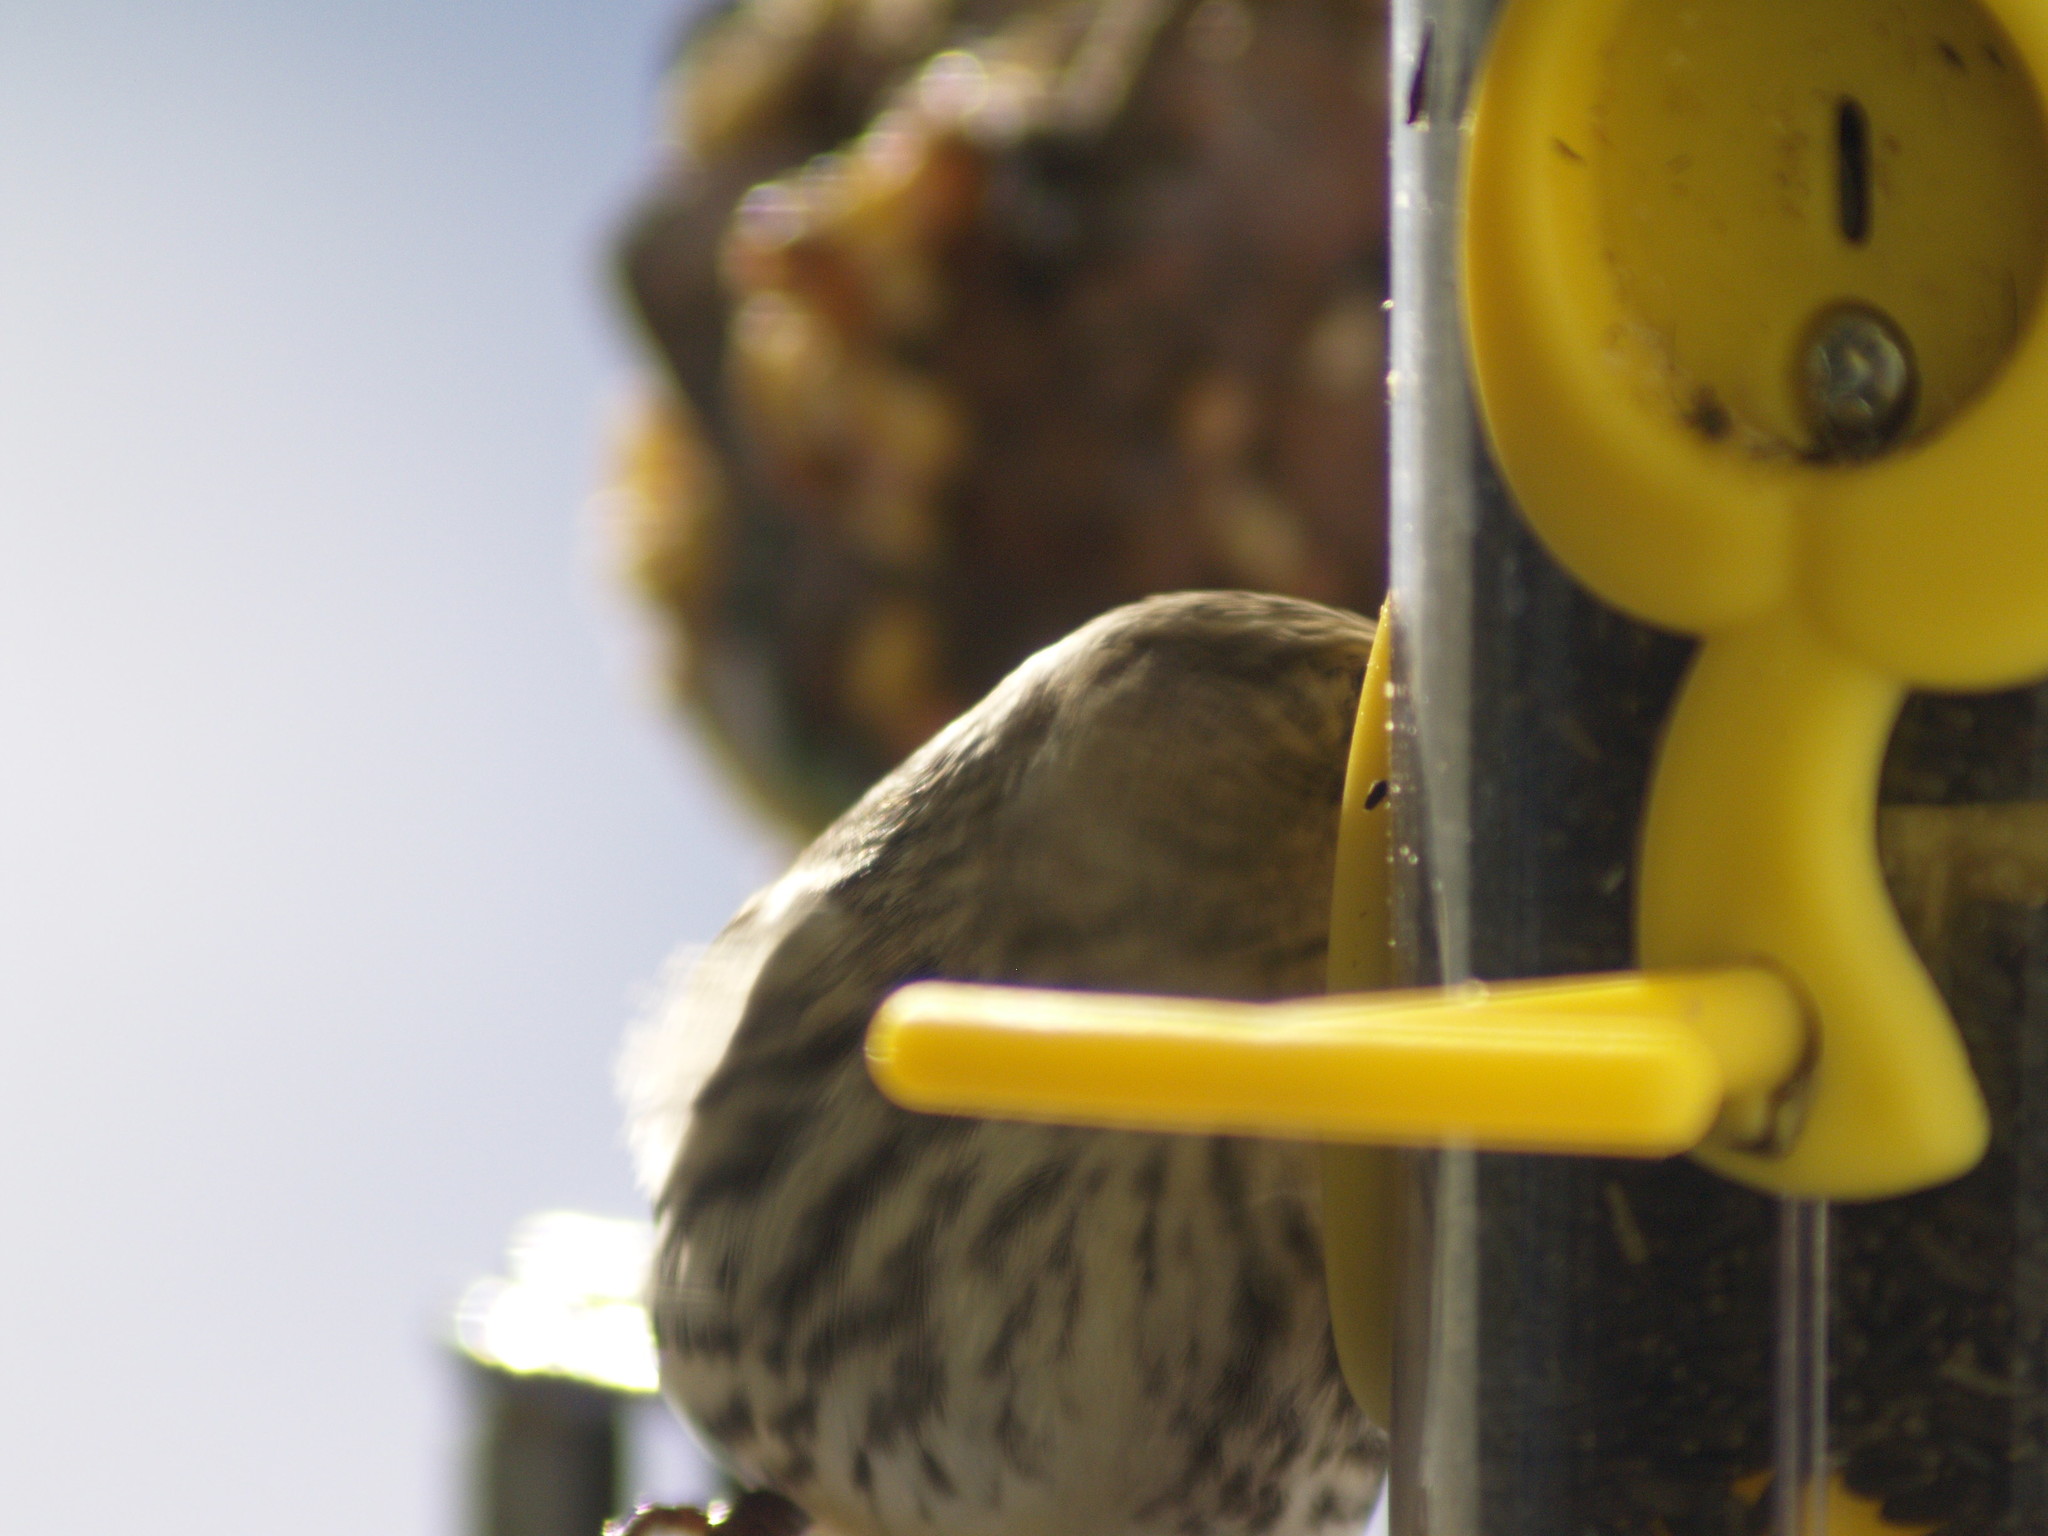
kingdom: Animalia
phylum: Chordata
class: Aves
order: Passeriformes
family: Fringillidae
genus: Spinus
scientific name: Spinus pinus
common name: Pine siskin
